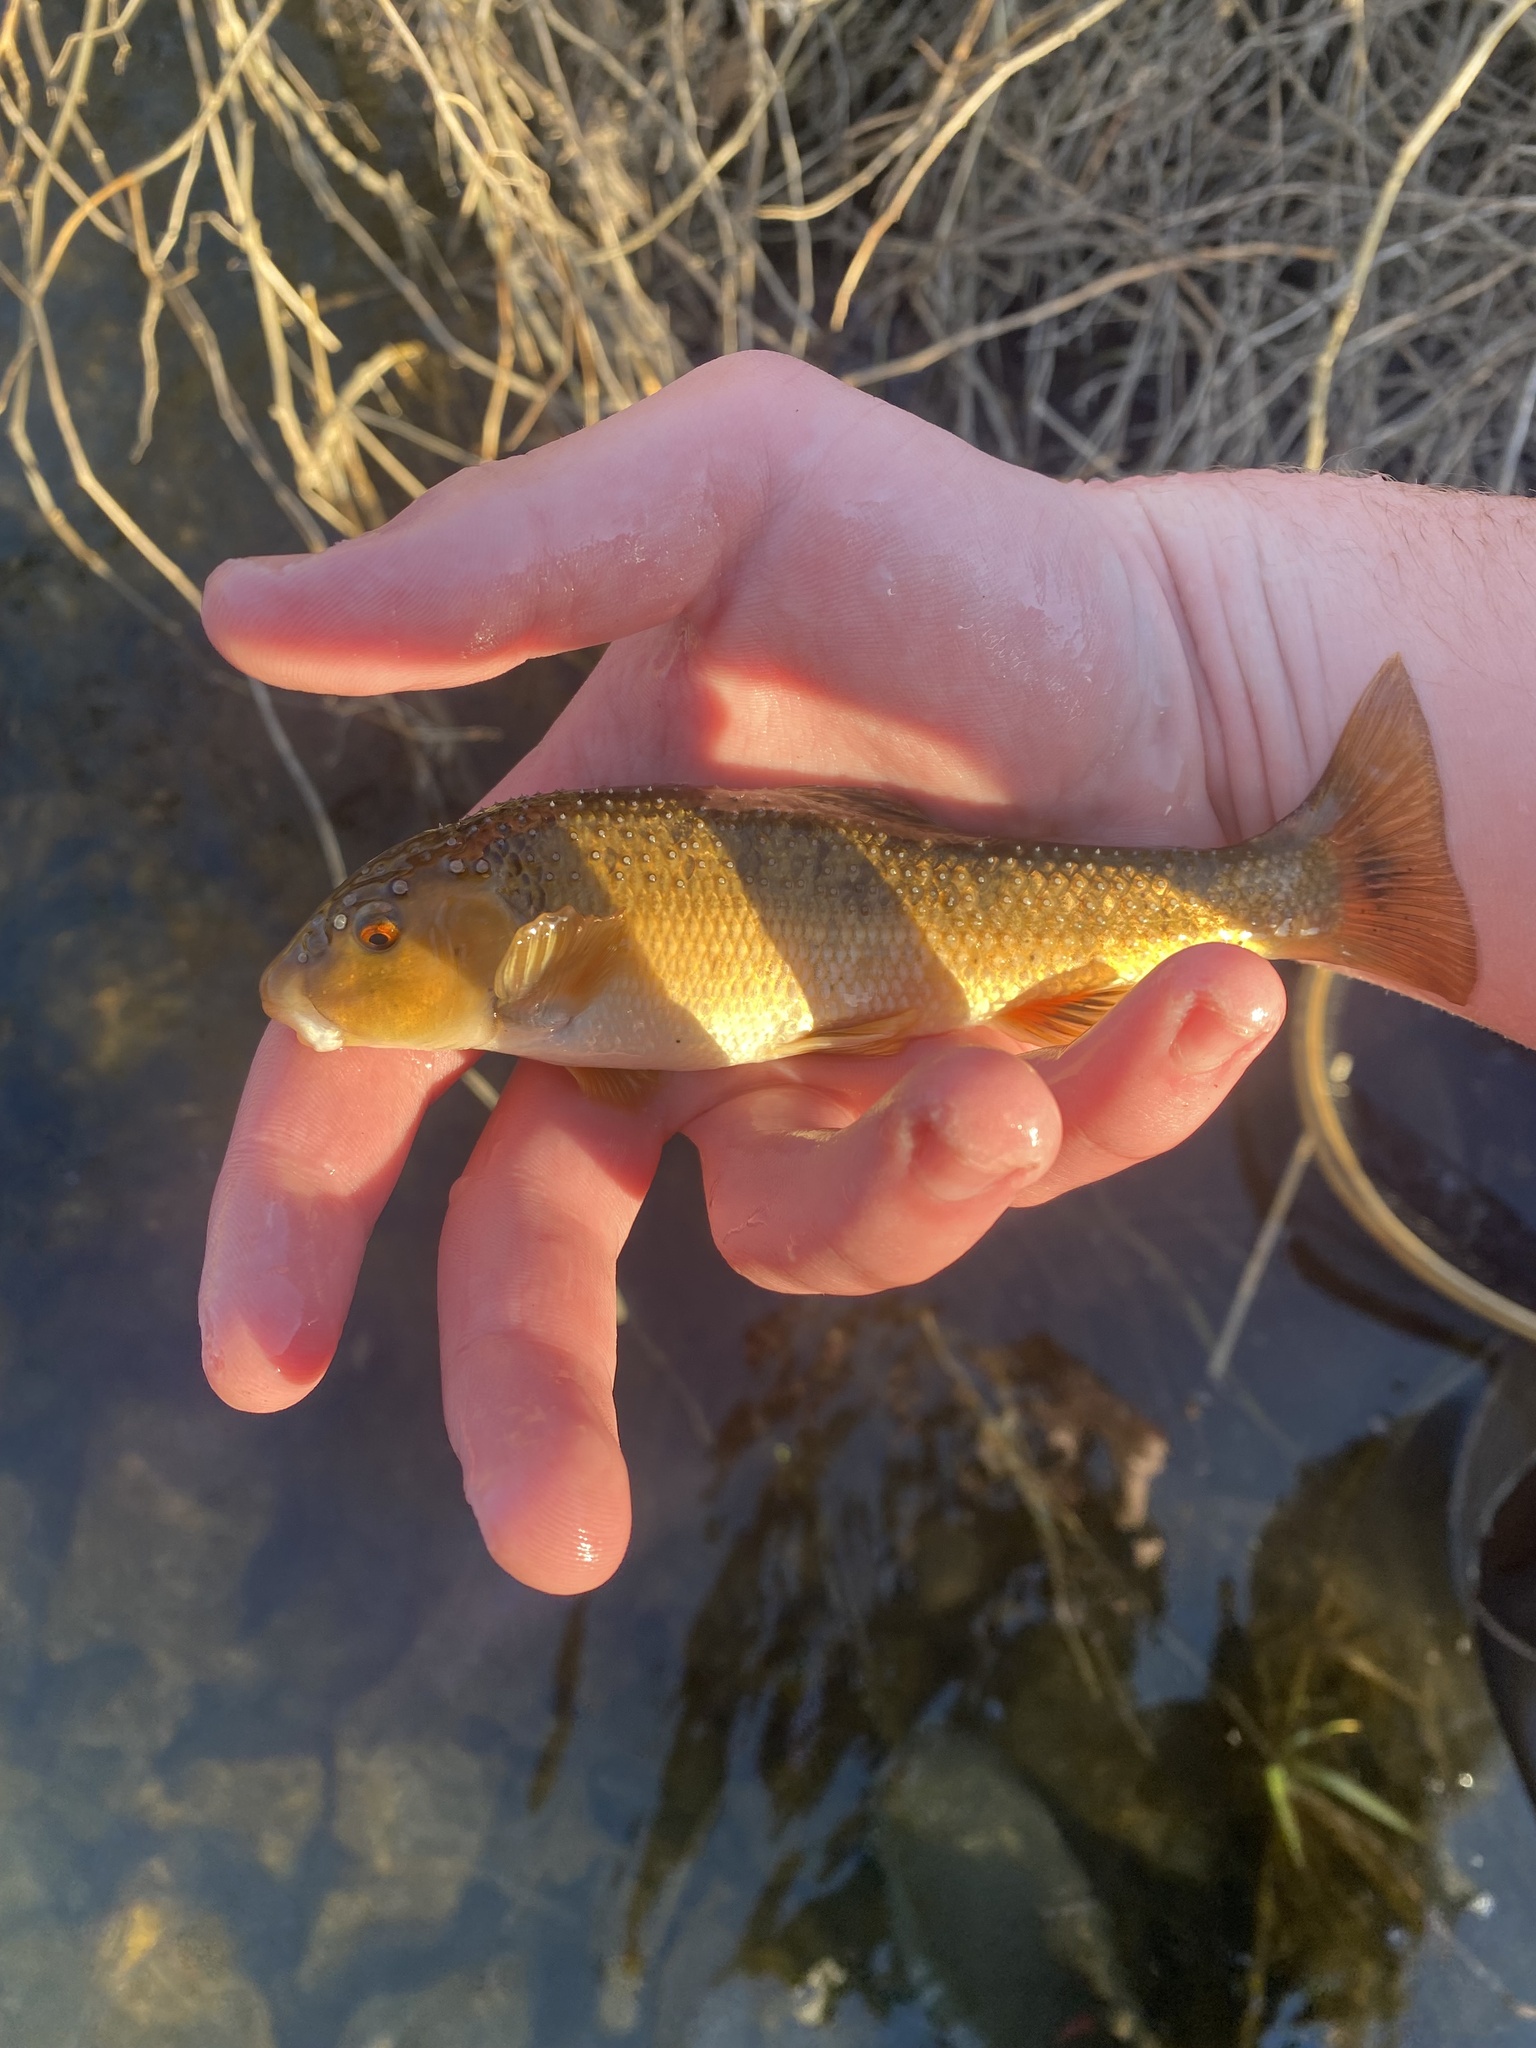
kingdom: Animalia
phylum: Chordata
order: Cypriniformes
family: Cyprinidae
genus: Campostoma
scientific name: Campostoma anomalum
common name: Central stoneroller
